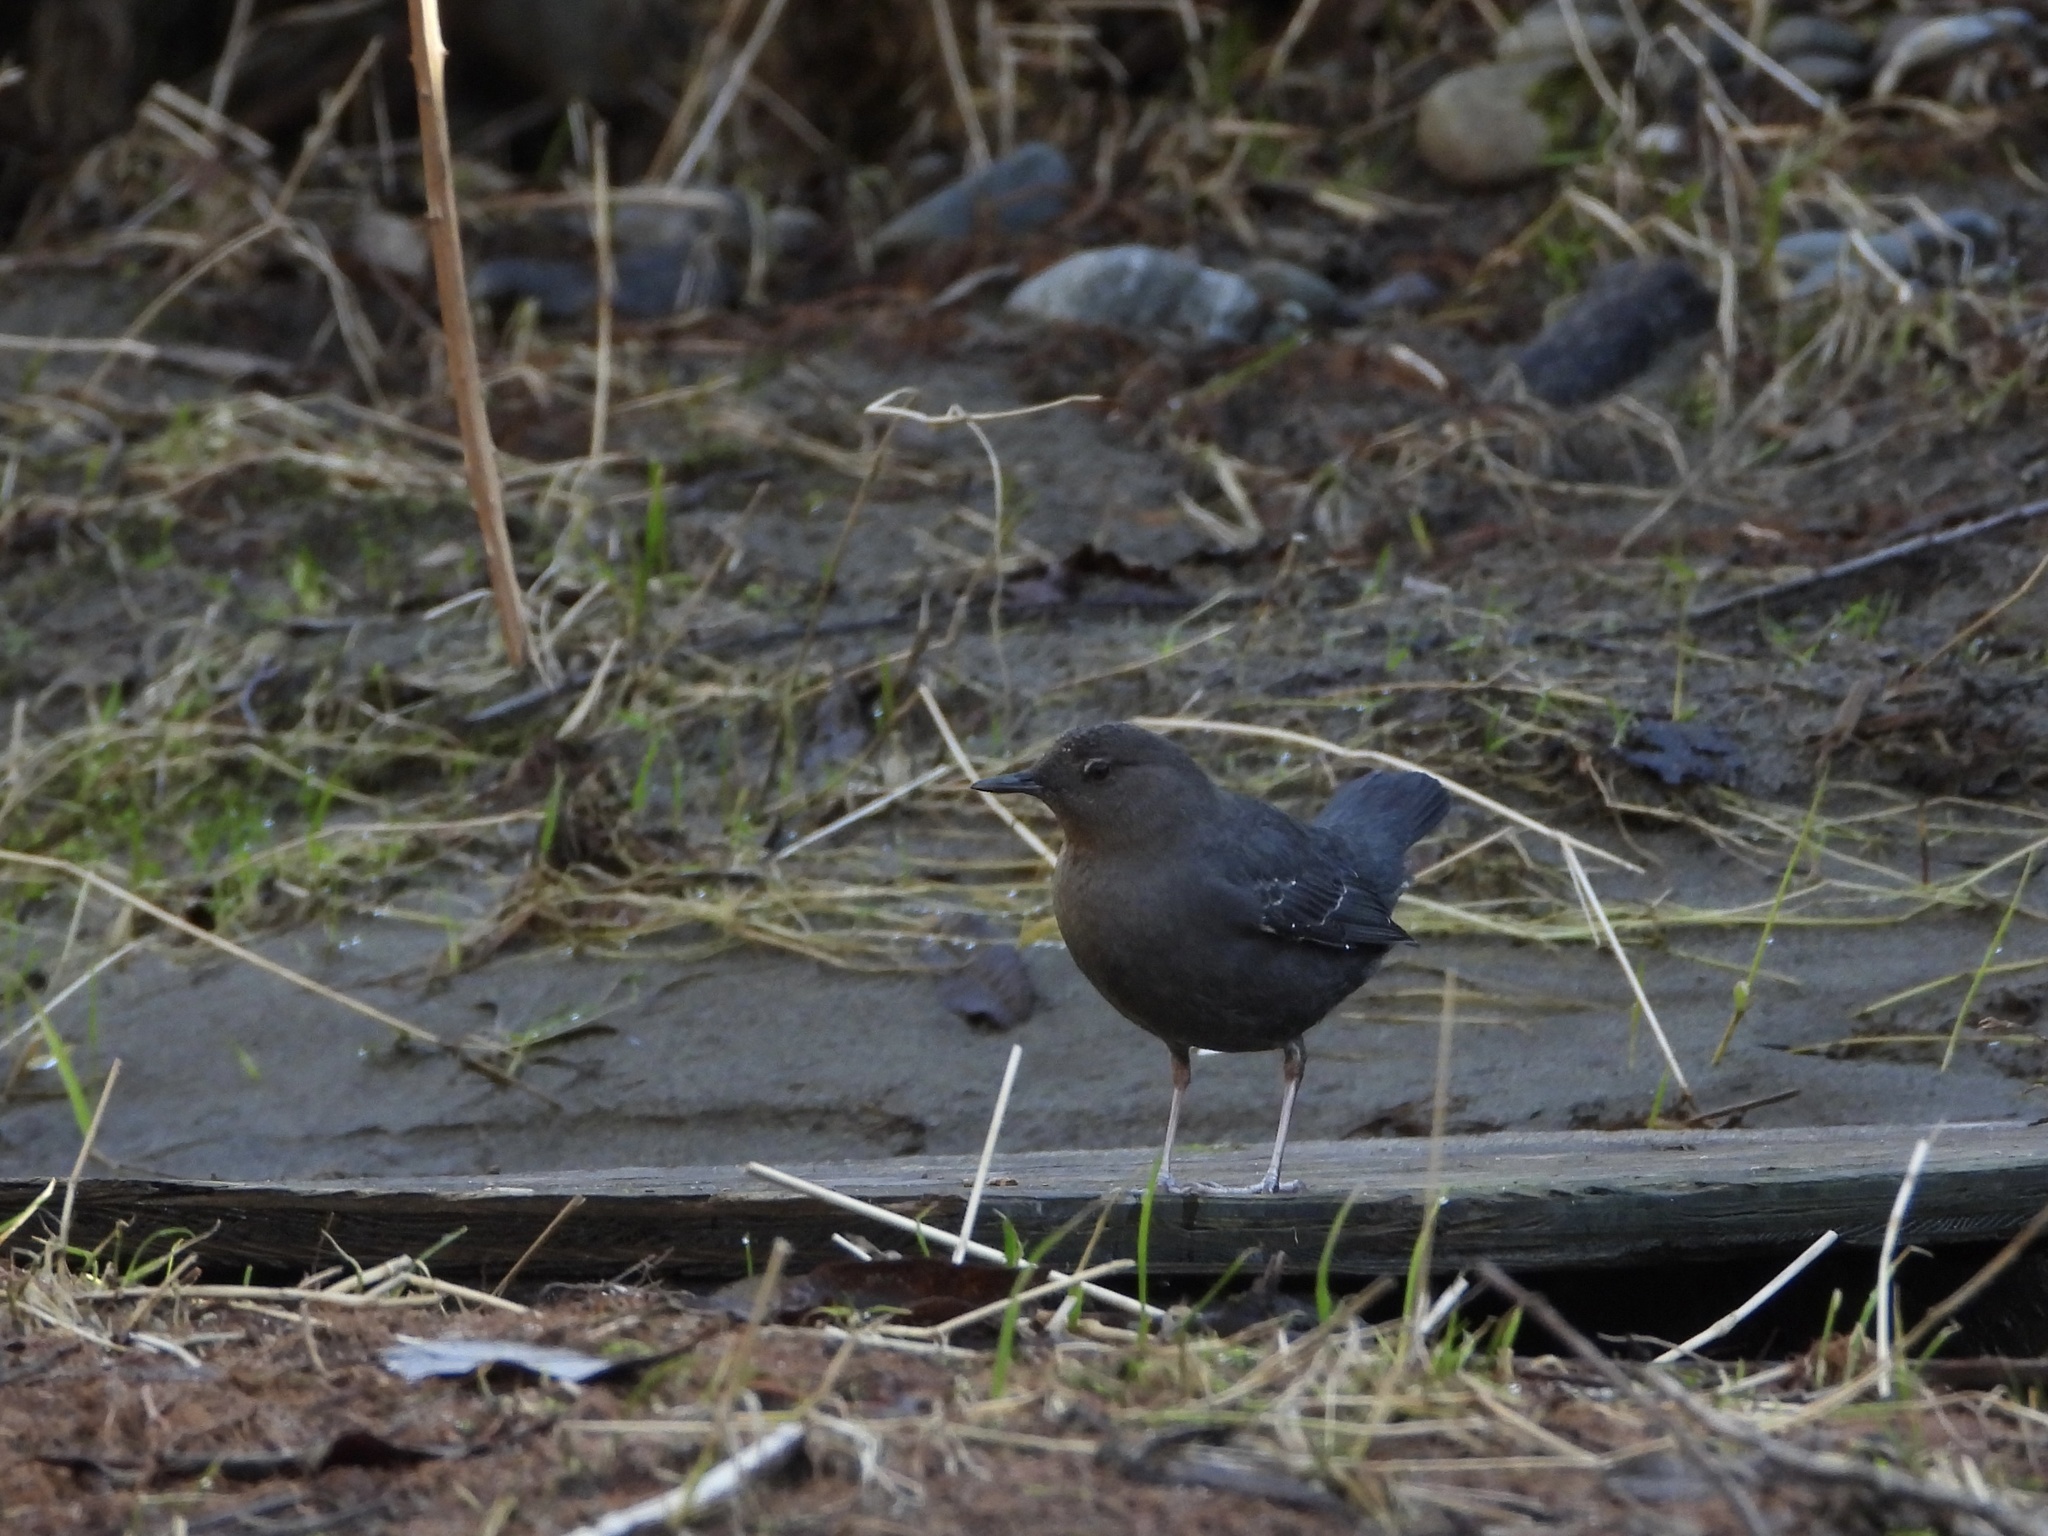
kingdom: Animalia
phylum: Chordata
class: Aves
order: Passeriformes
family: Cinclidae
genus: Cinclus
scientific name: Cinclus mexicanus
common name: American dipper
